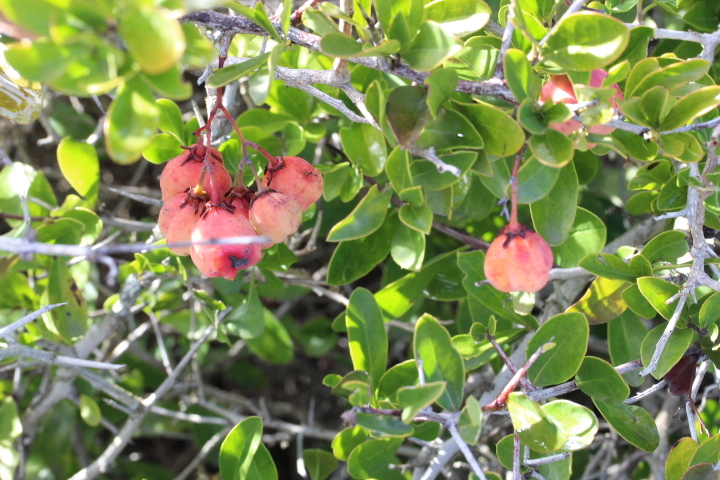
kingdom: Plantae
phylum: Tracheophyta
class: Magnoliopsida
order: Celastrales
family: Celastraceae
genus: Putterlickia
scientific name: Putterlickia pyracantha
